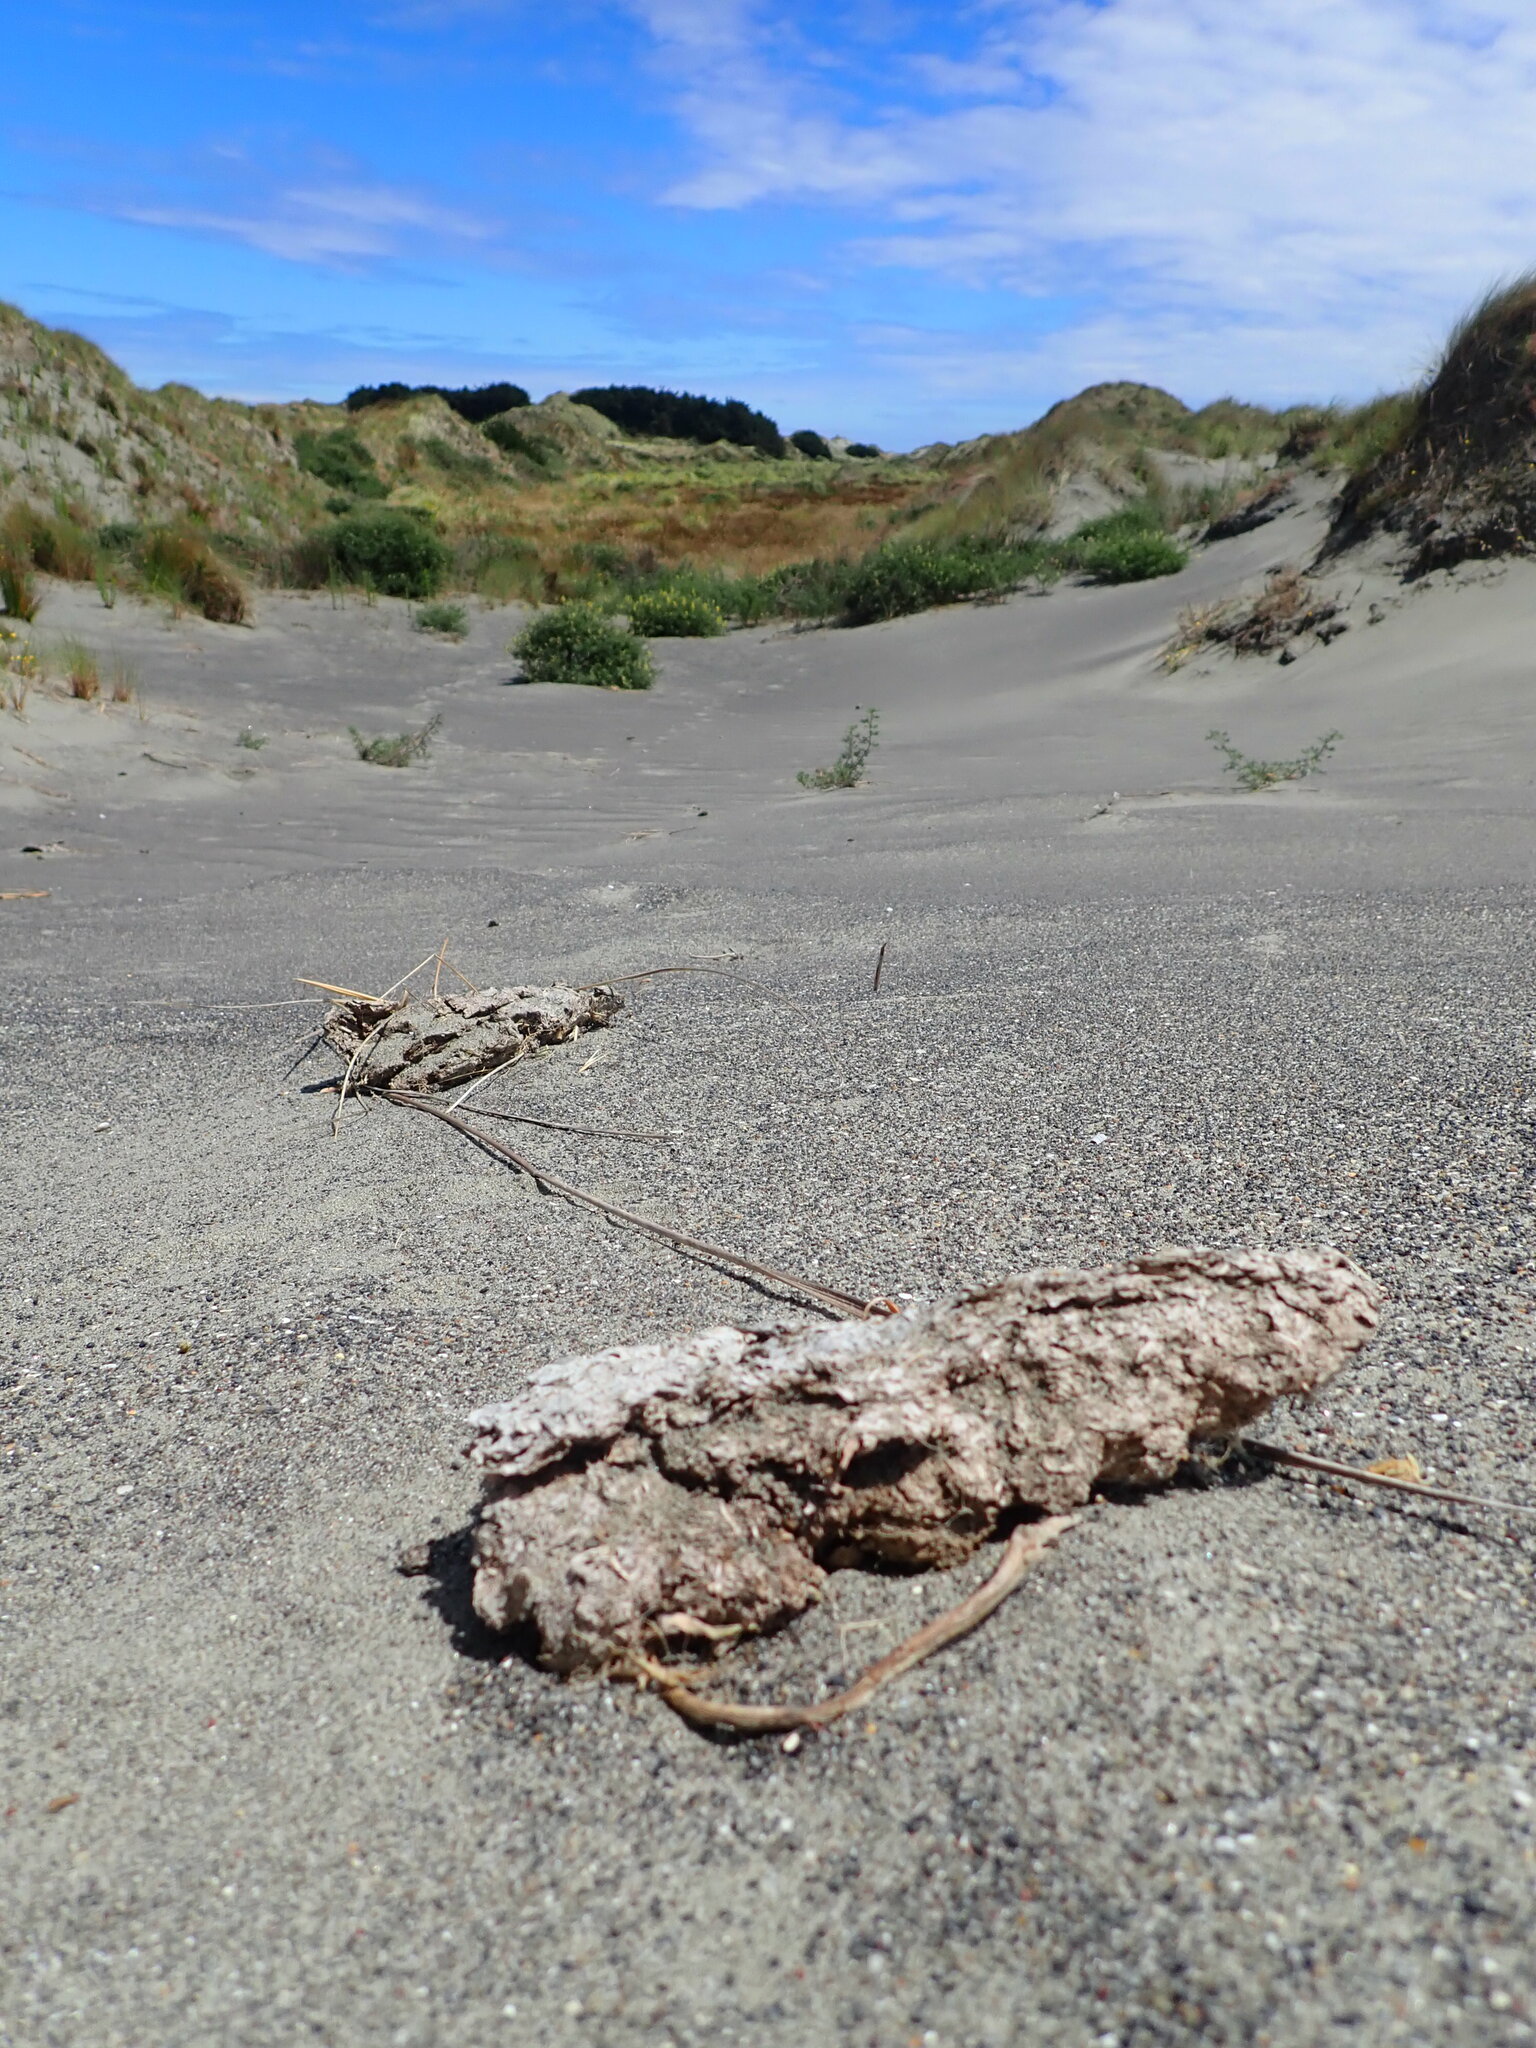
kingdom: Animalia
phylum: Arthropoda
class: Arachnida
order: Araneae
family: Theridiidae
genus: Latrodectus
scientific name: Latrodectus katipo
